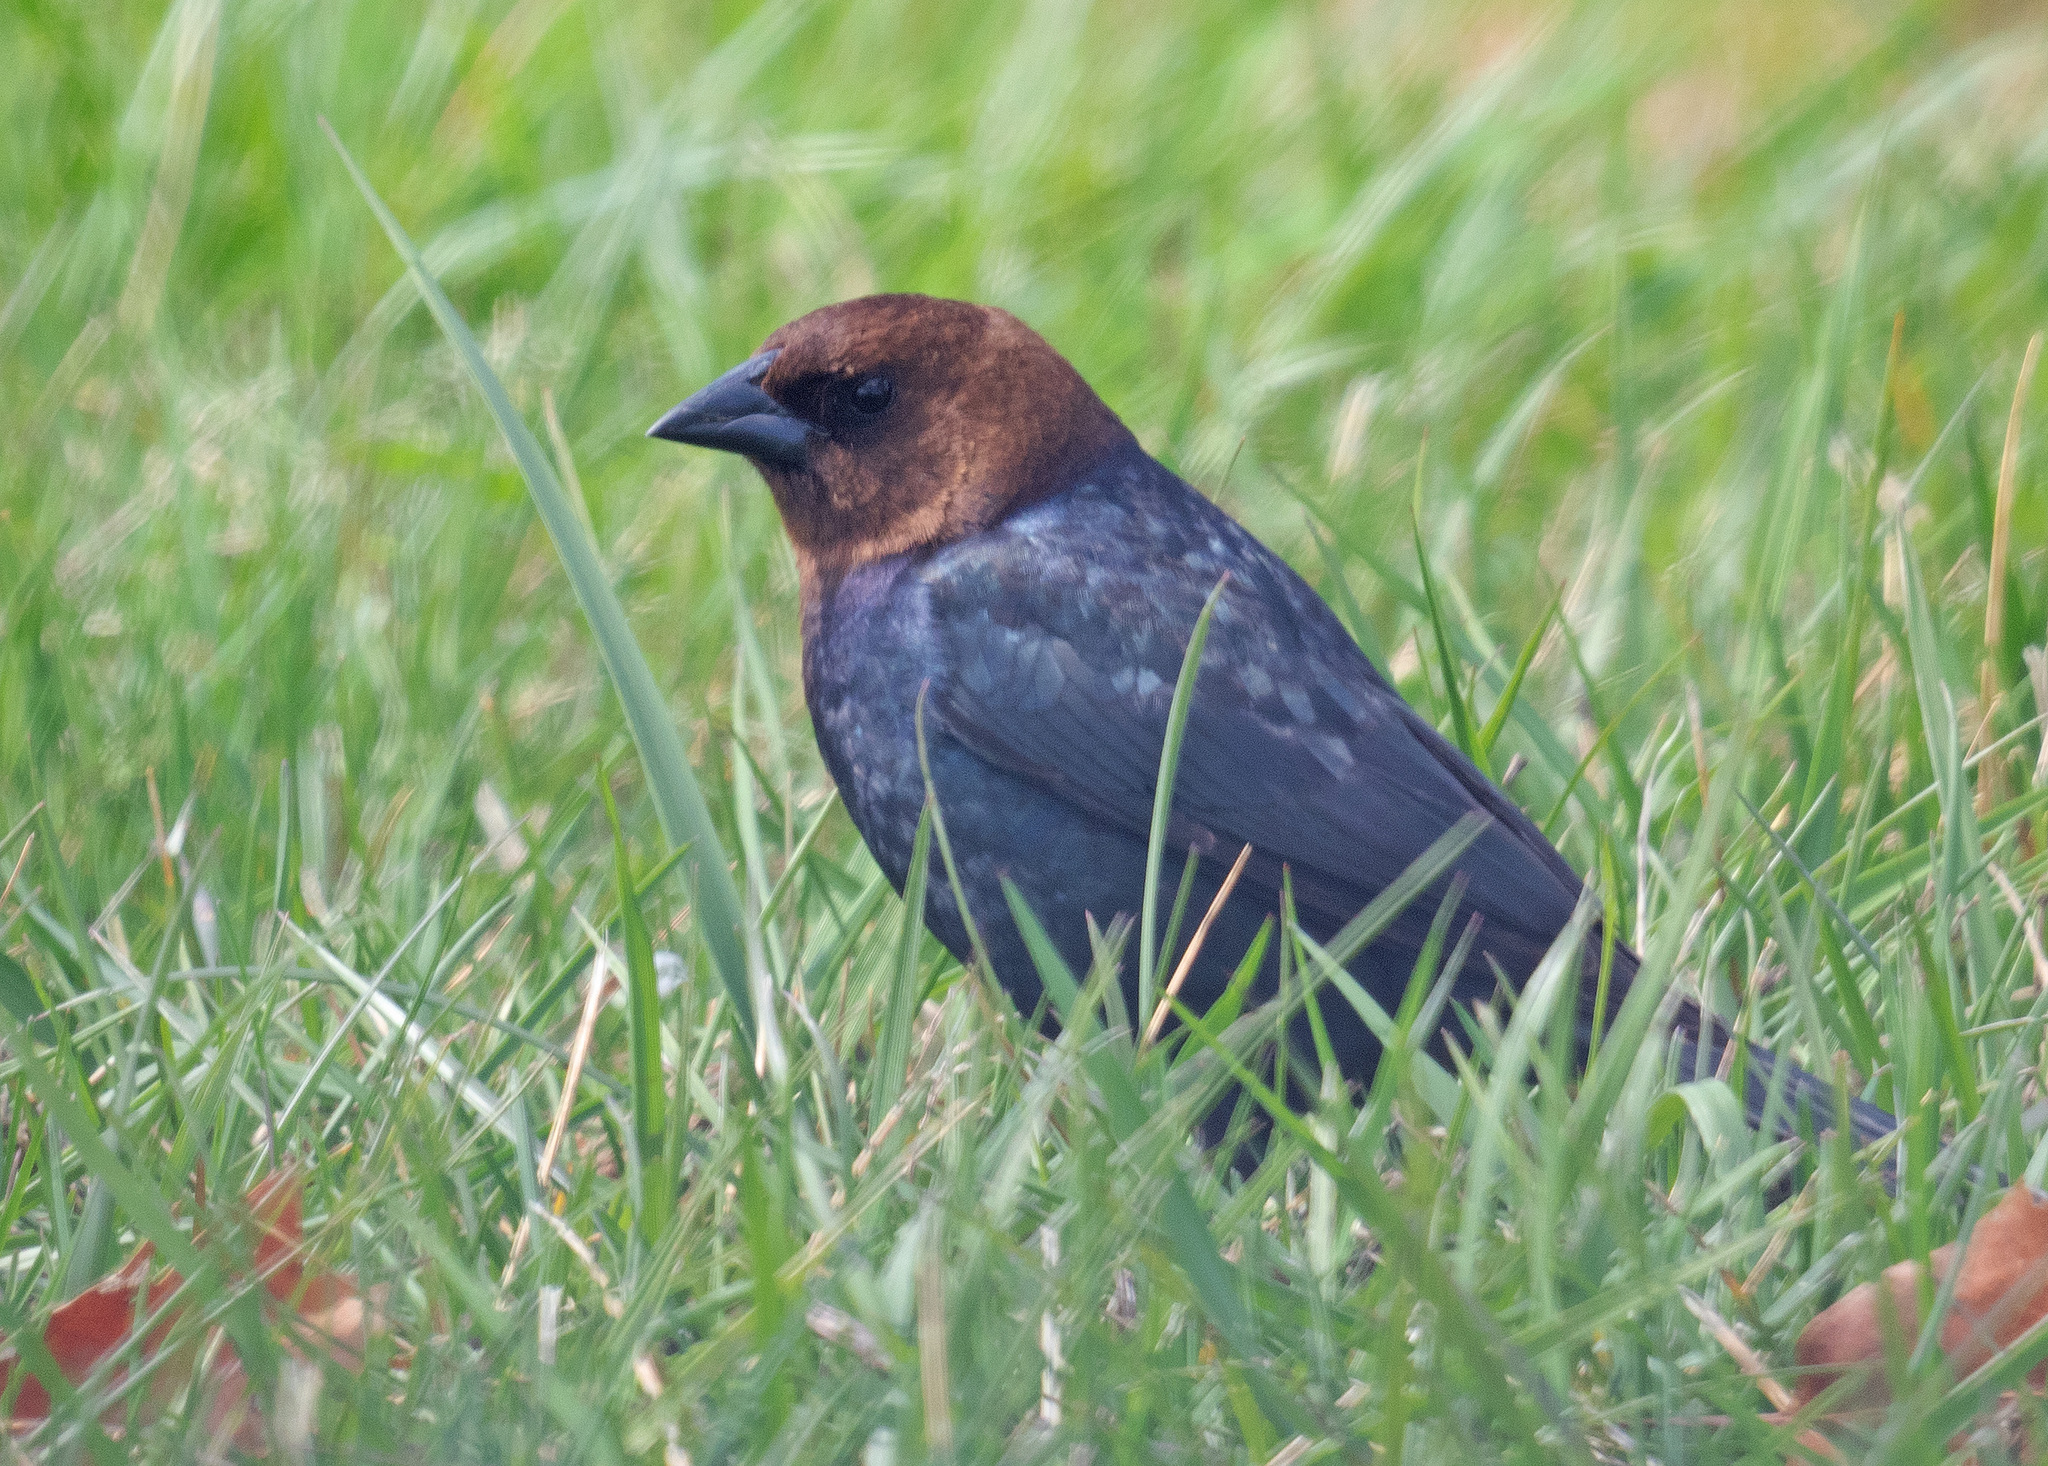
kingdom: Animalia
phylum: Chordata
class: Aves
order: Passeriformes
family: Icteridae
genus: Molothrus
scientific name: Molothrus ater
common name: Brown-headed cowbird
